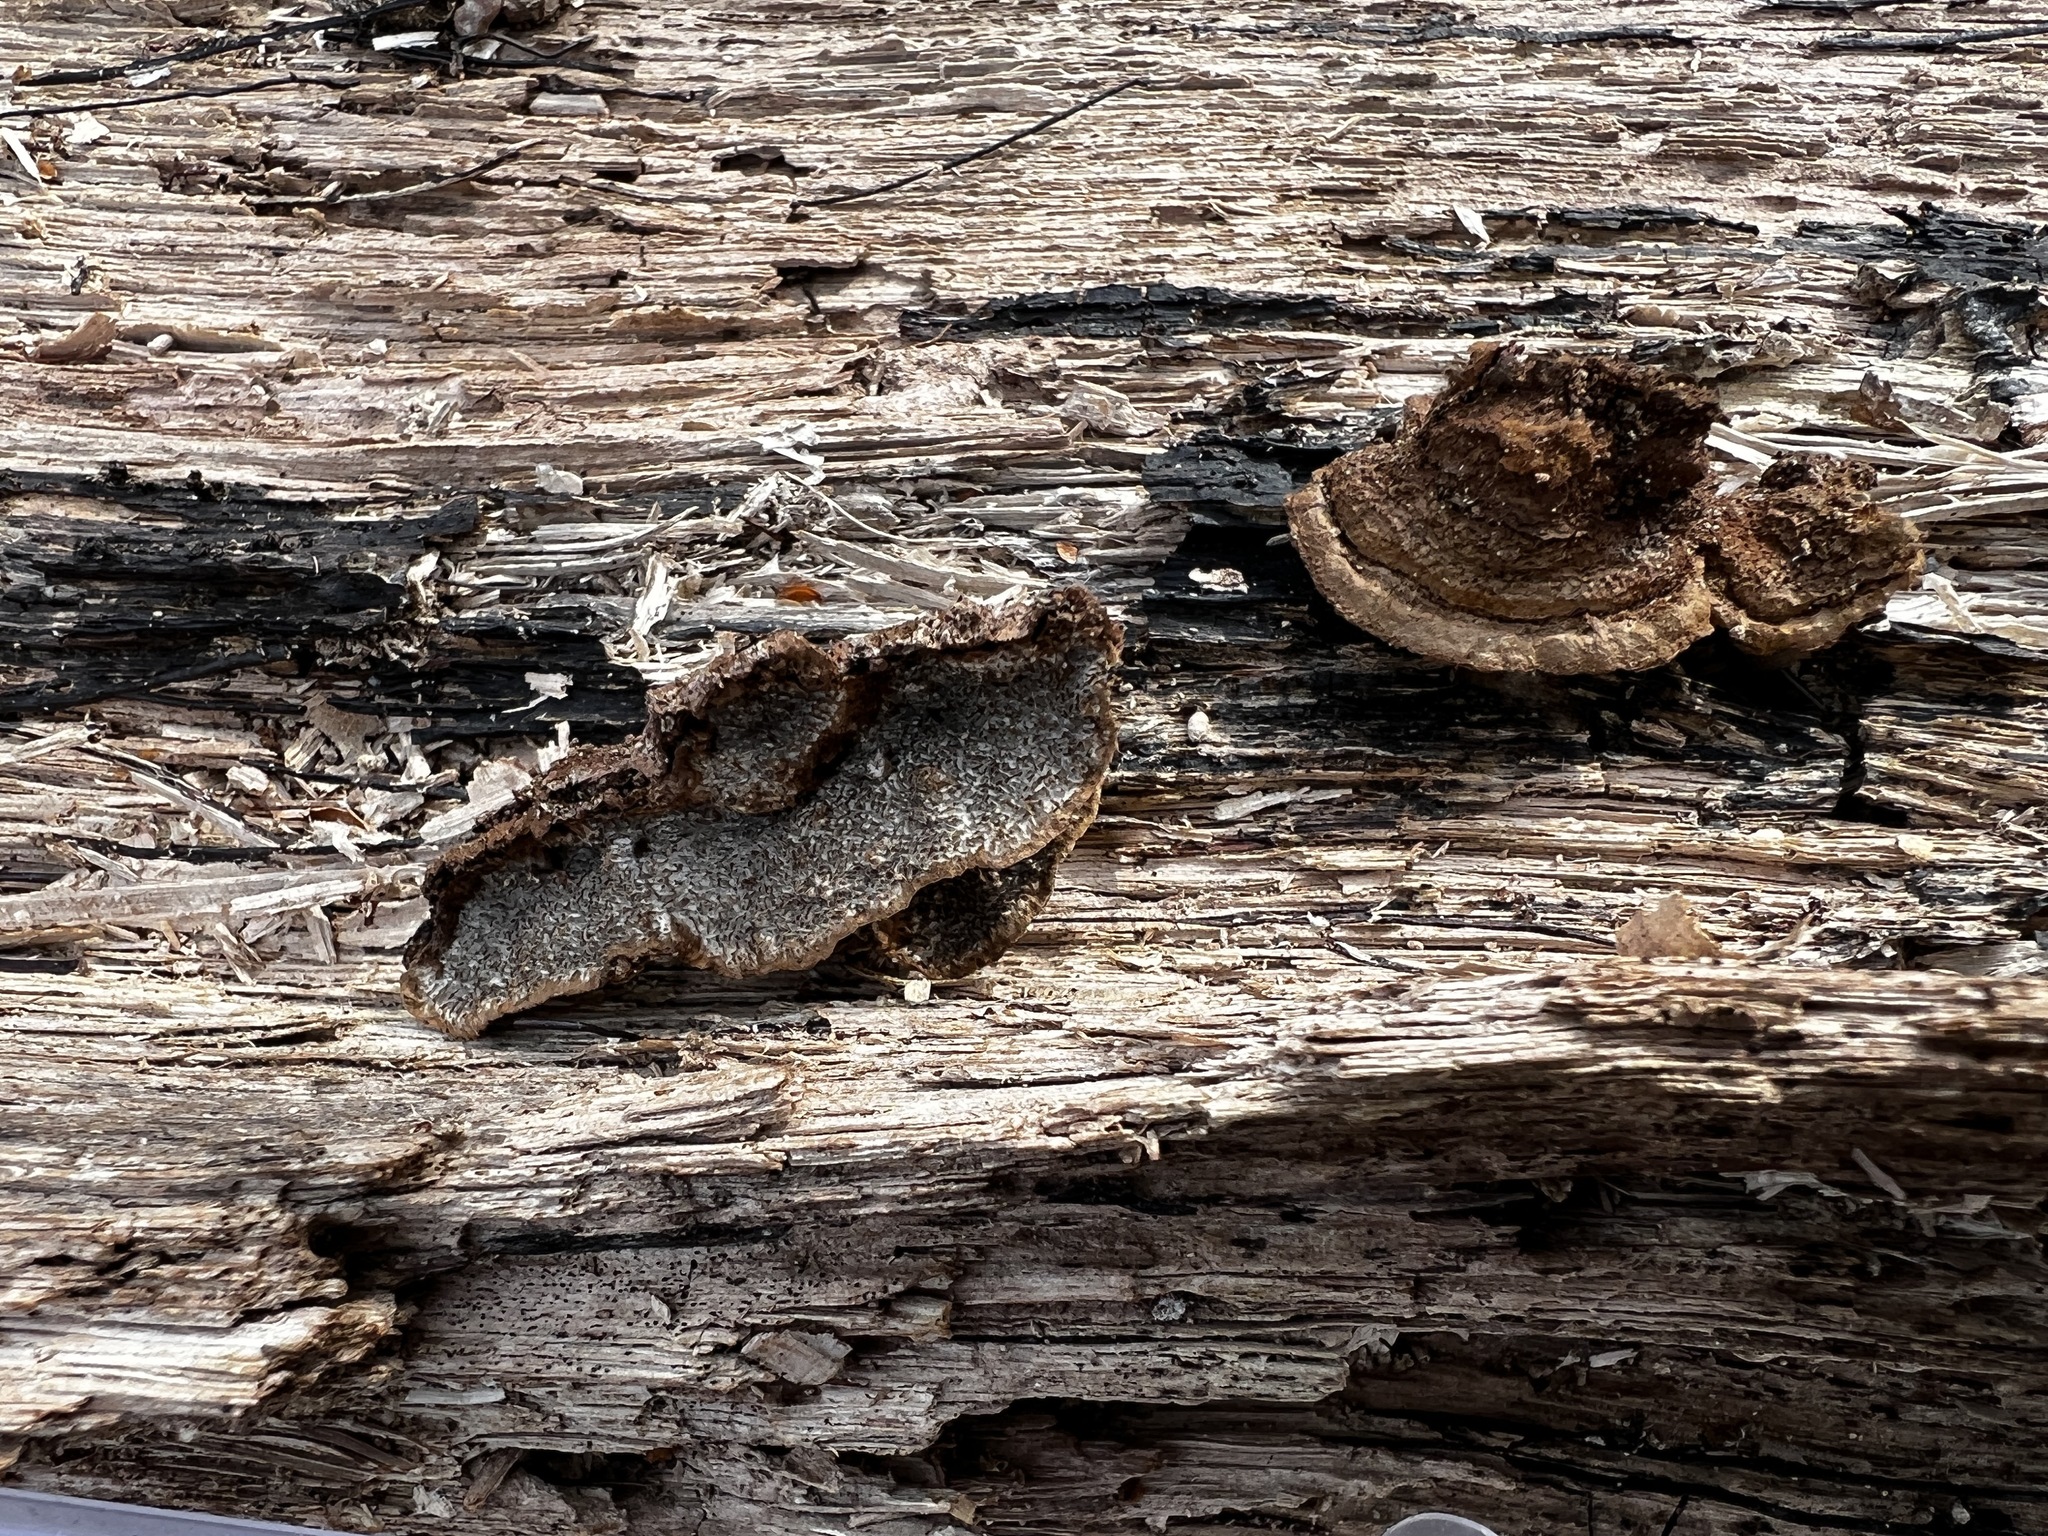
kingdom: Fungi
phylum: Basidiomycota
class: Agaricomycetes
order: Polyporales
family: Polyporaceae
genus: Dentocorticium
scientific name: Dentocorticium portoricense
